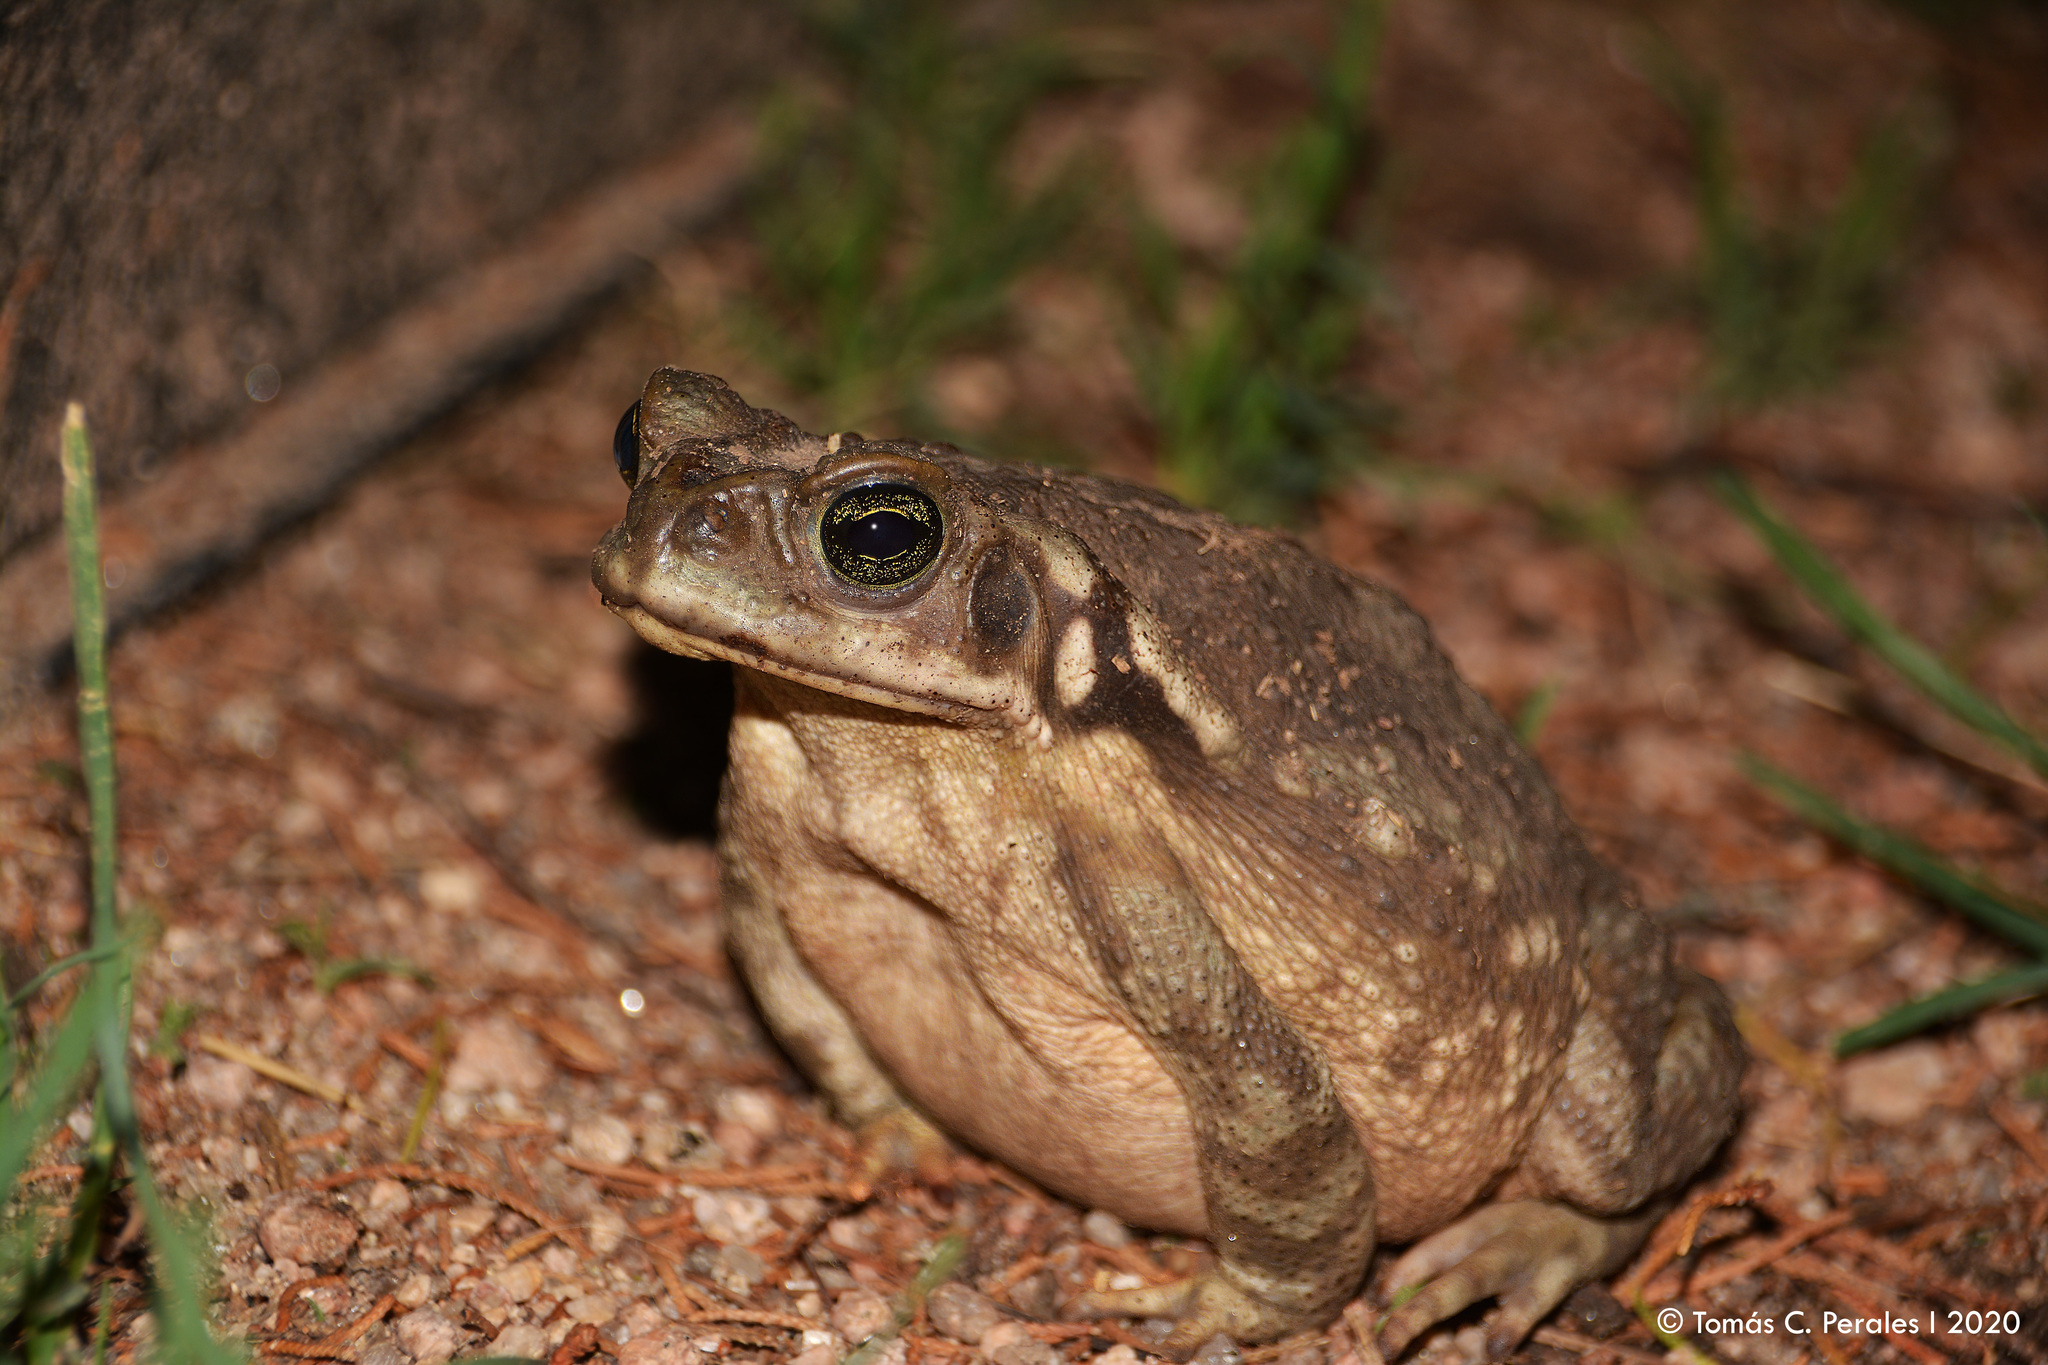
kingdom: Animalia
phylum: Chordata
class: Amphibia
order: Anura
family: Bufonidae
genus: Rhinella
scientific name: Rhinella arenarum
